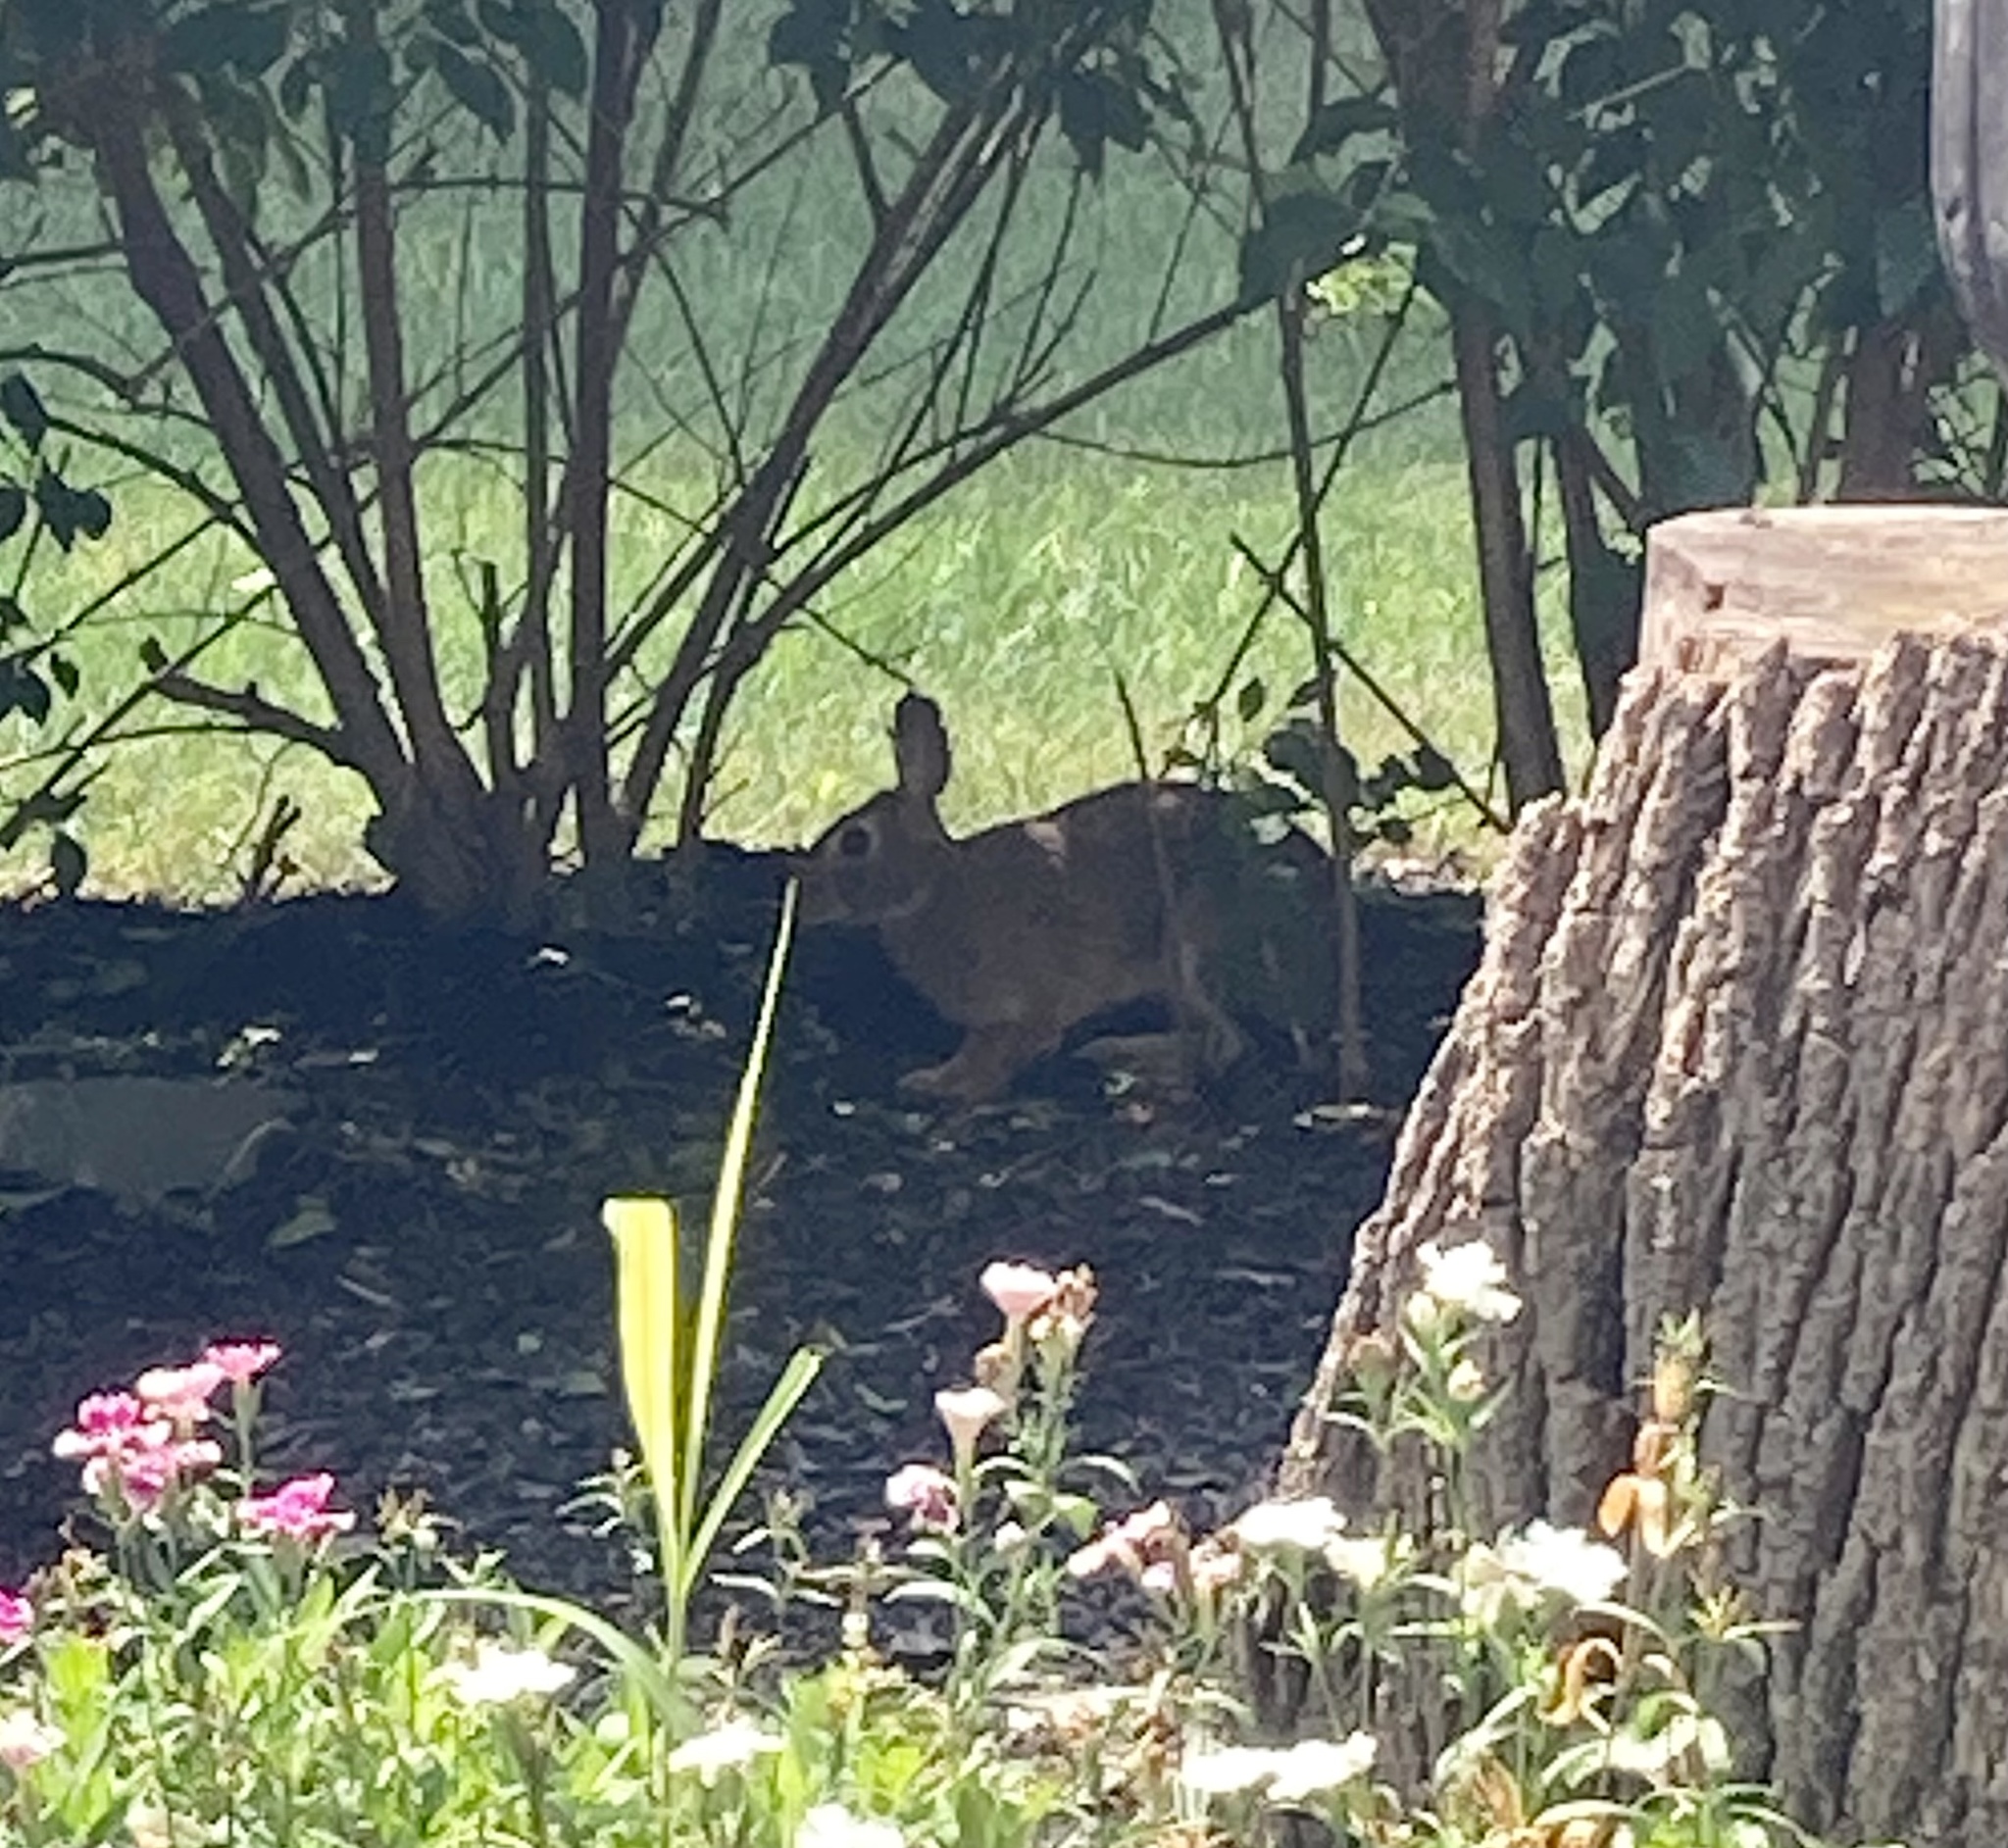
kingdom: Animalia
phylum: Chordata
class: Mammalia
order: Lagomorpha
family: Leporidae
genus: Sylvilagus
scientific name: Sylvilagus floridanus
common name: Eastern cottontail
